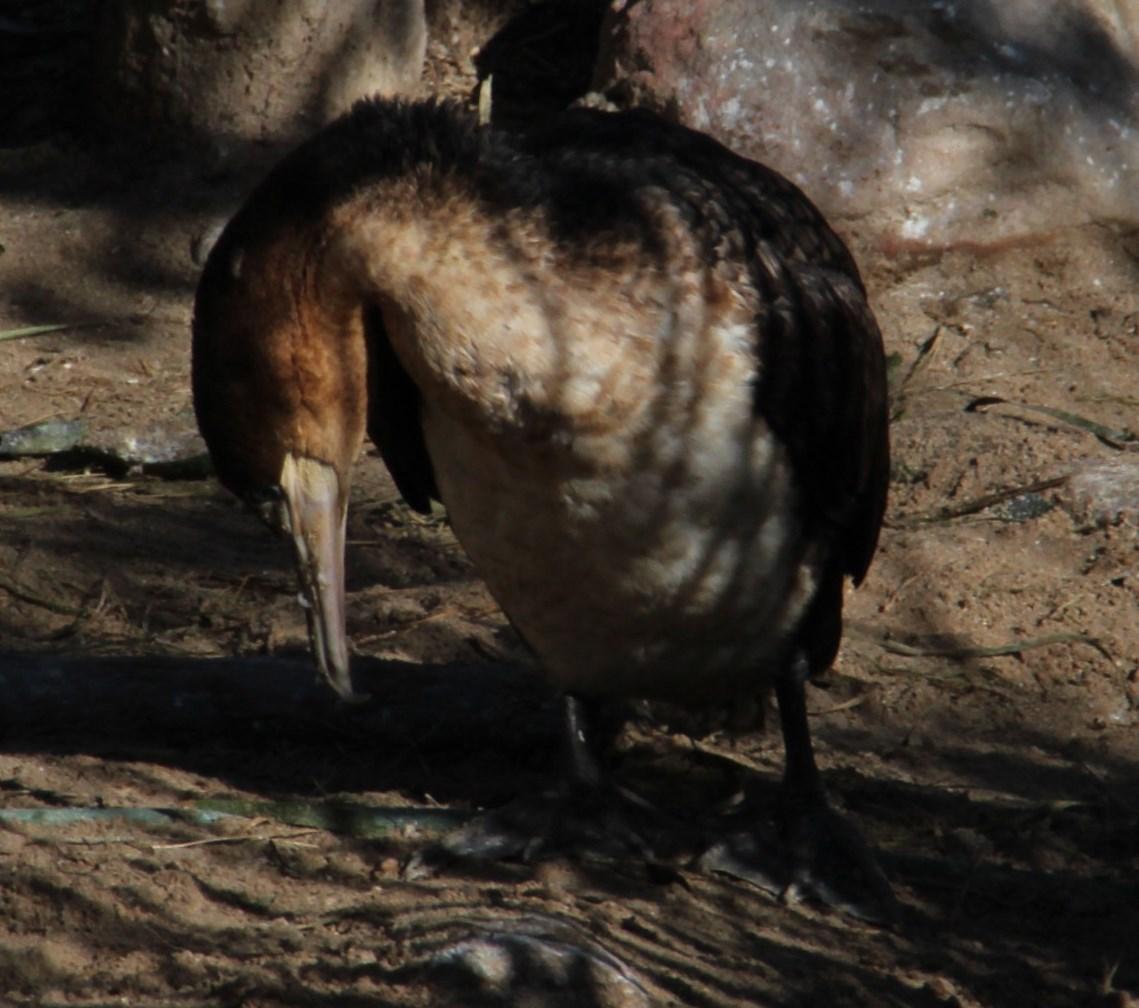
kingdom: Animalia
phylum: Chordata
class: Aves
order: Suliformes
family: Phalacrocoracidae
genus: Phalacrocorax
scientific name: Phalacrocorax carbo
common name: Great cormorant
